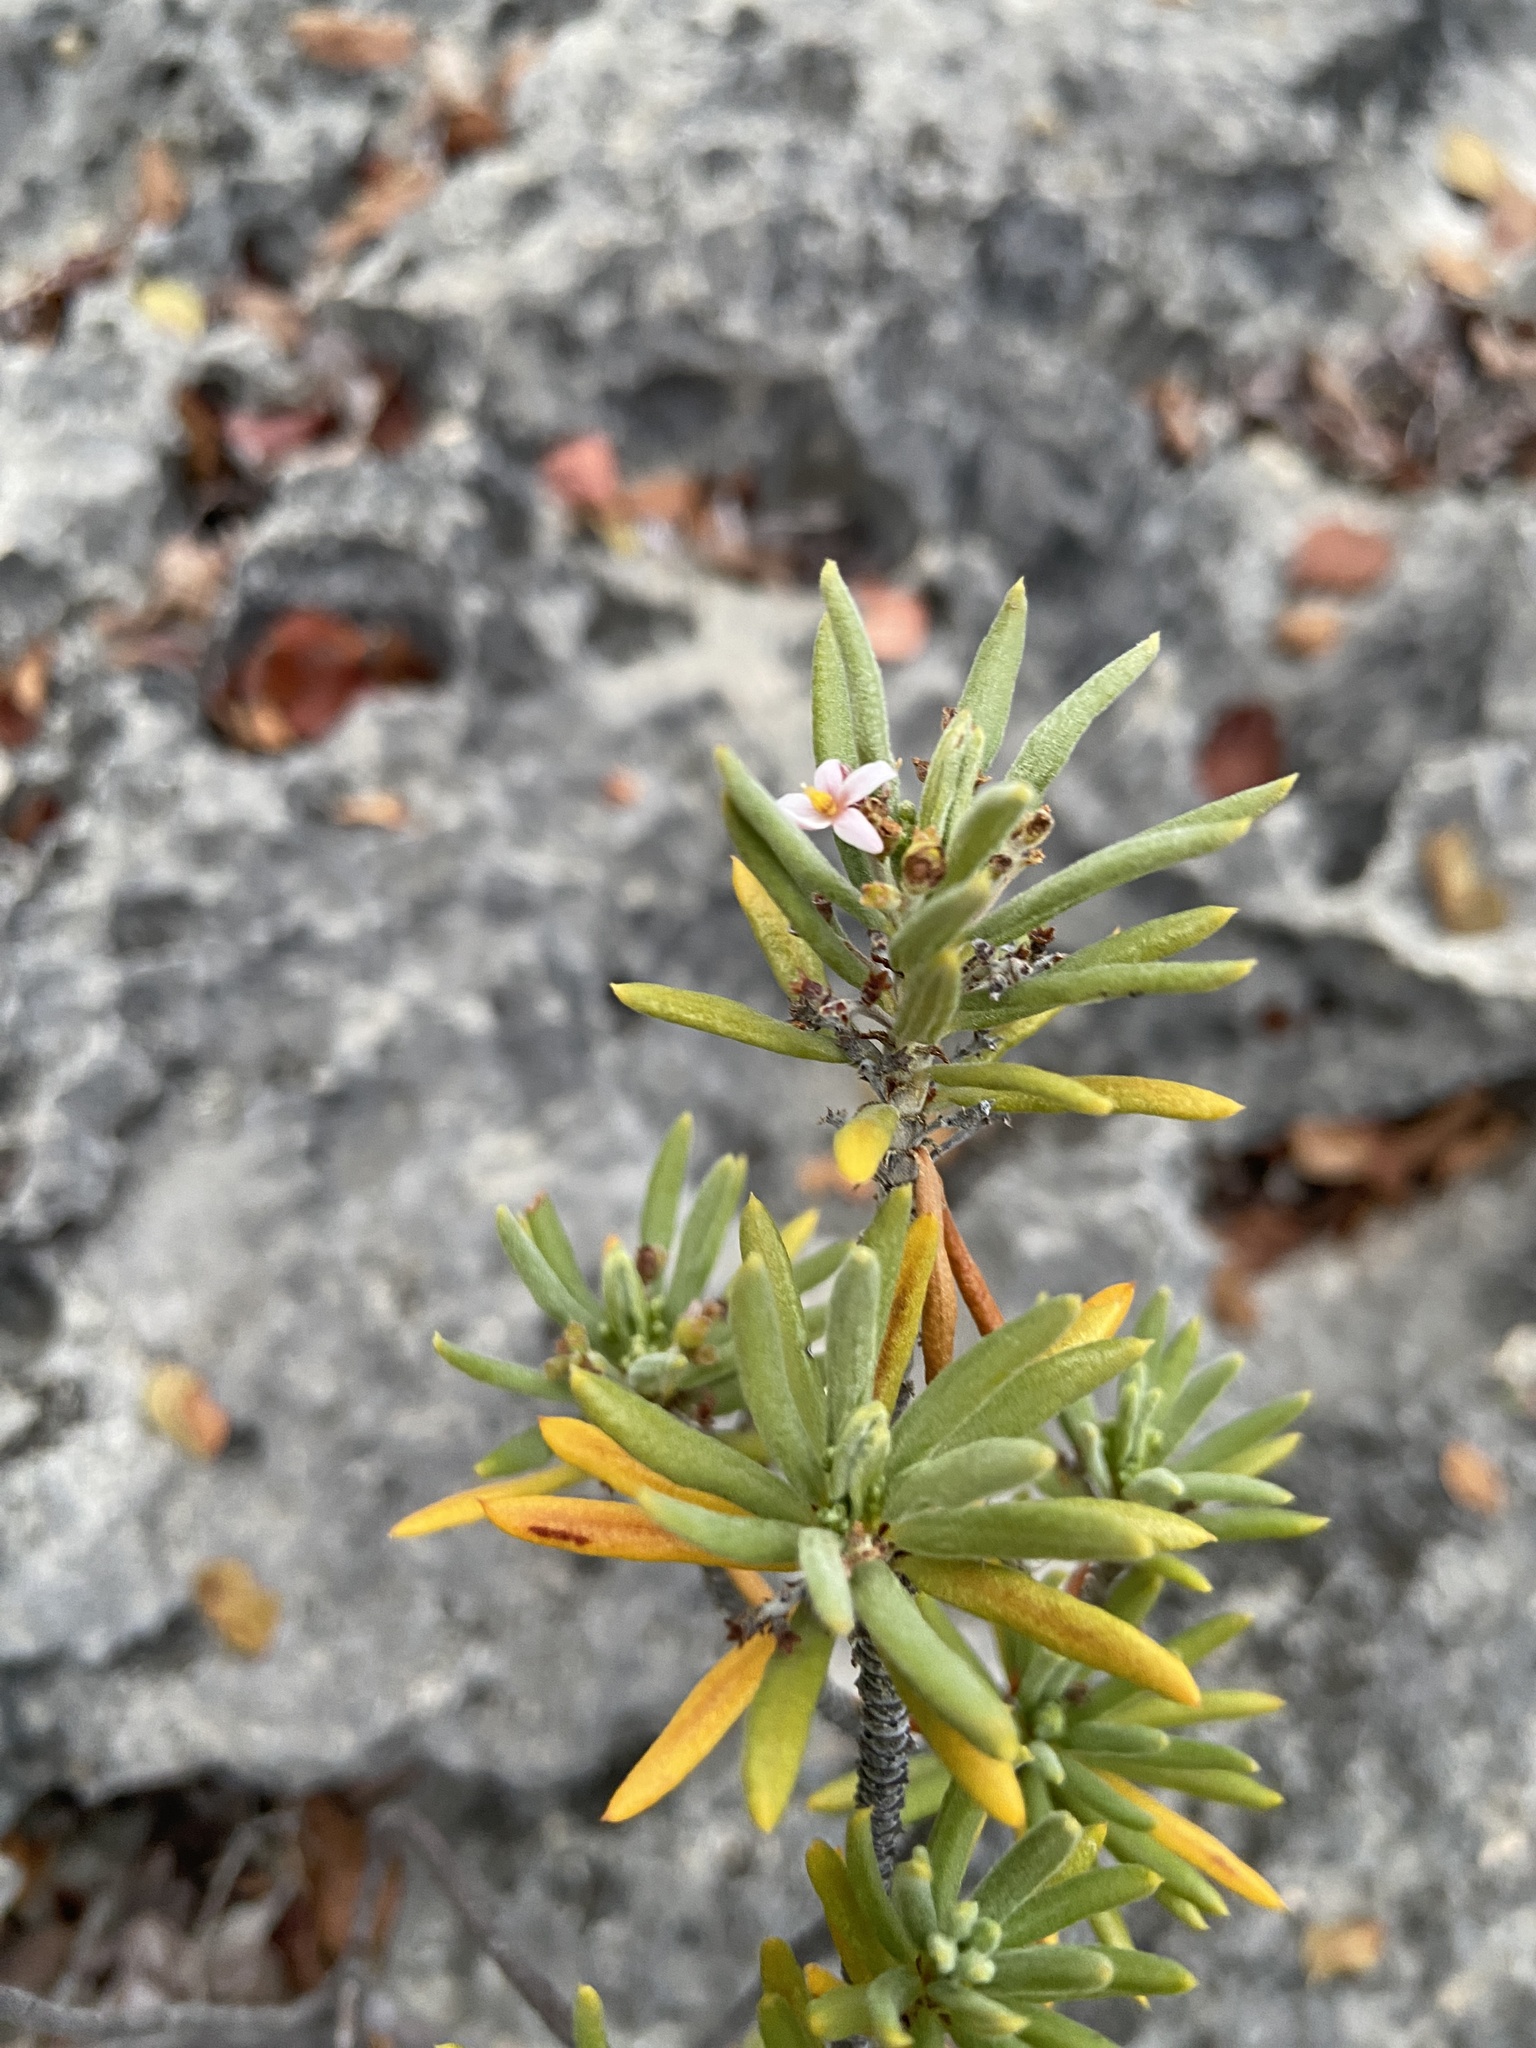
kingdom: Plantae
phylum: Tracheophyta
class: Magnoliopsida
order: Gentianales
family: Rubiaceae
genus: Strumpfia
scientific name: Strumpfia maritima
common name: Pride-of-big pine
